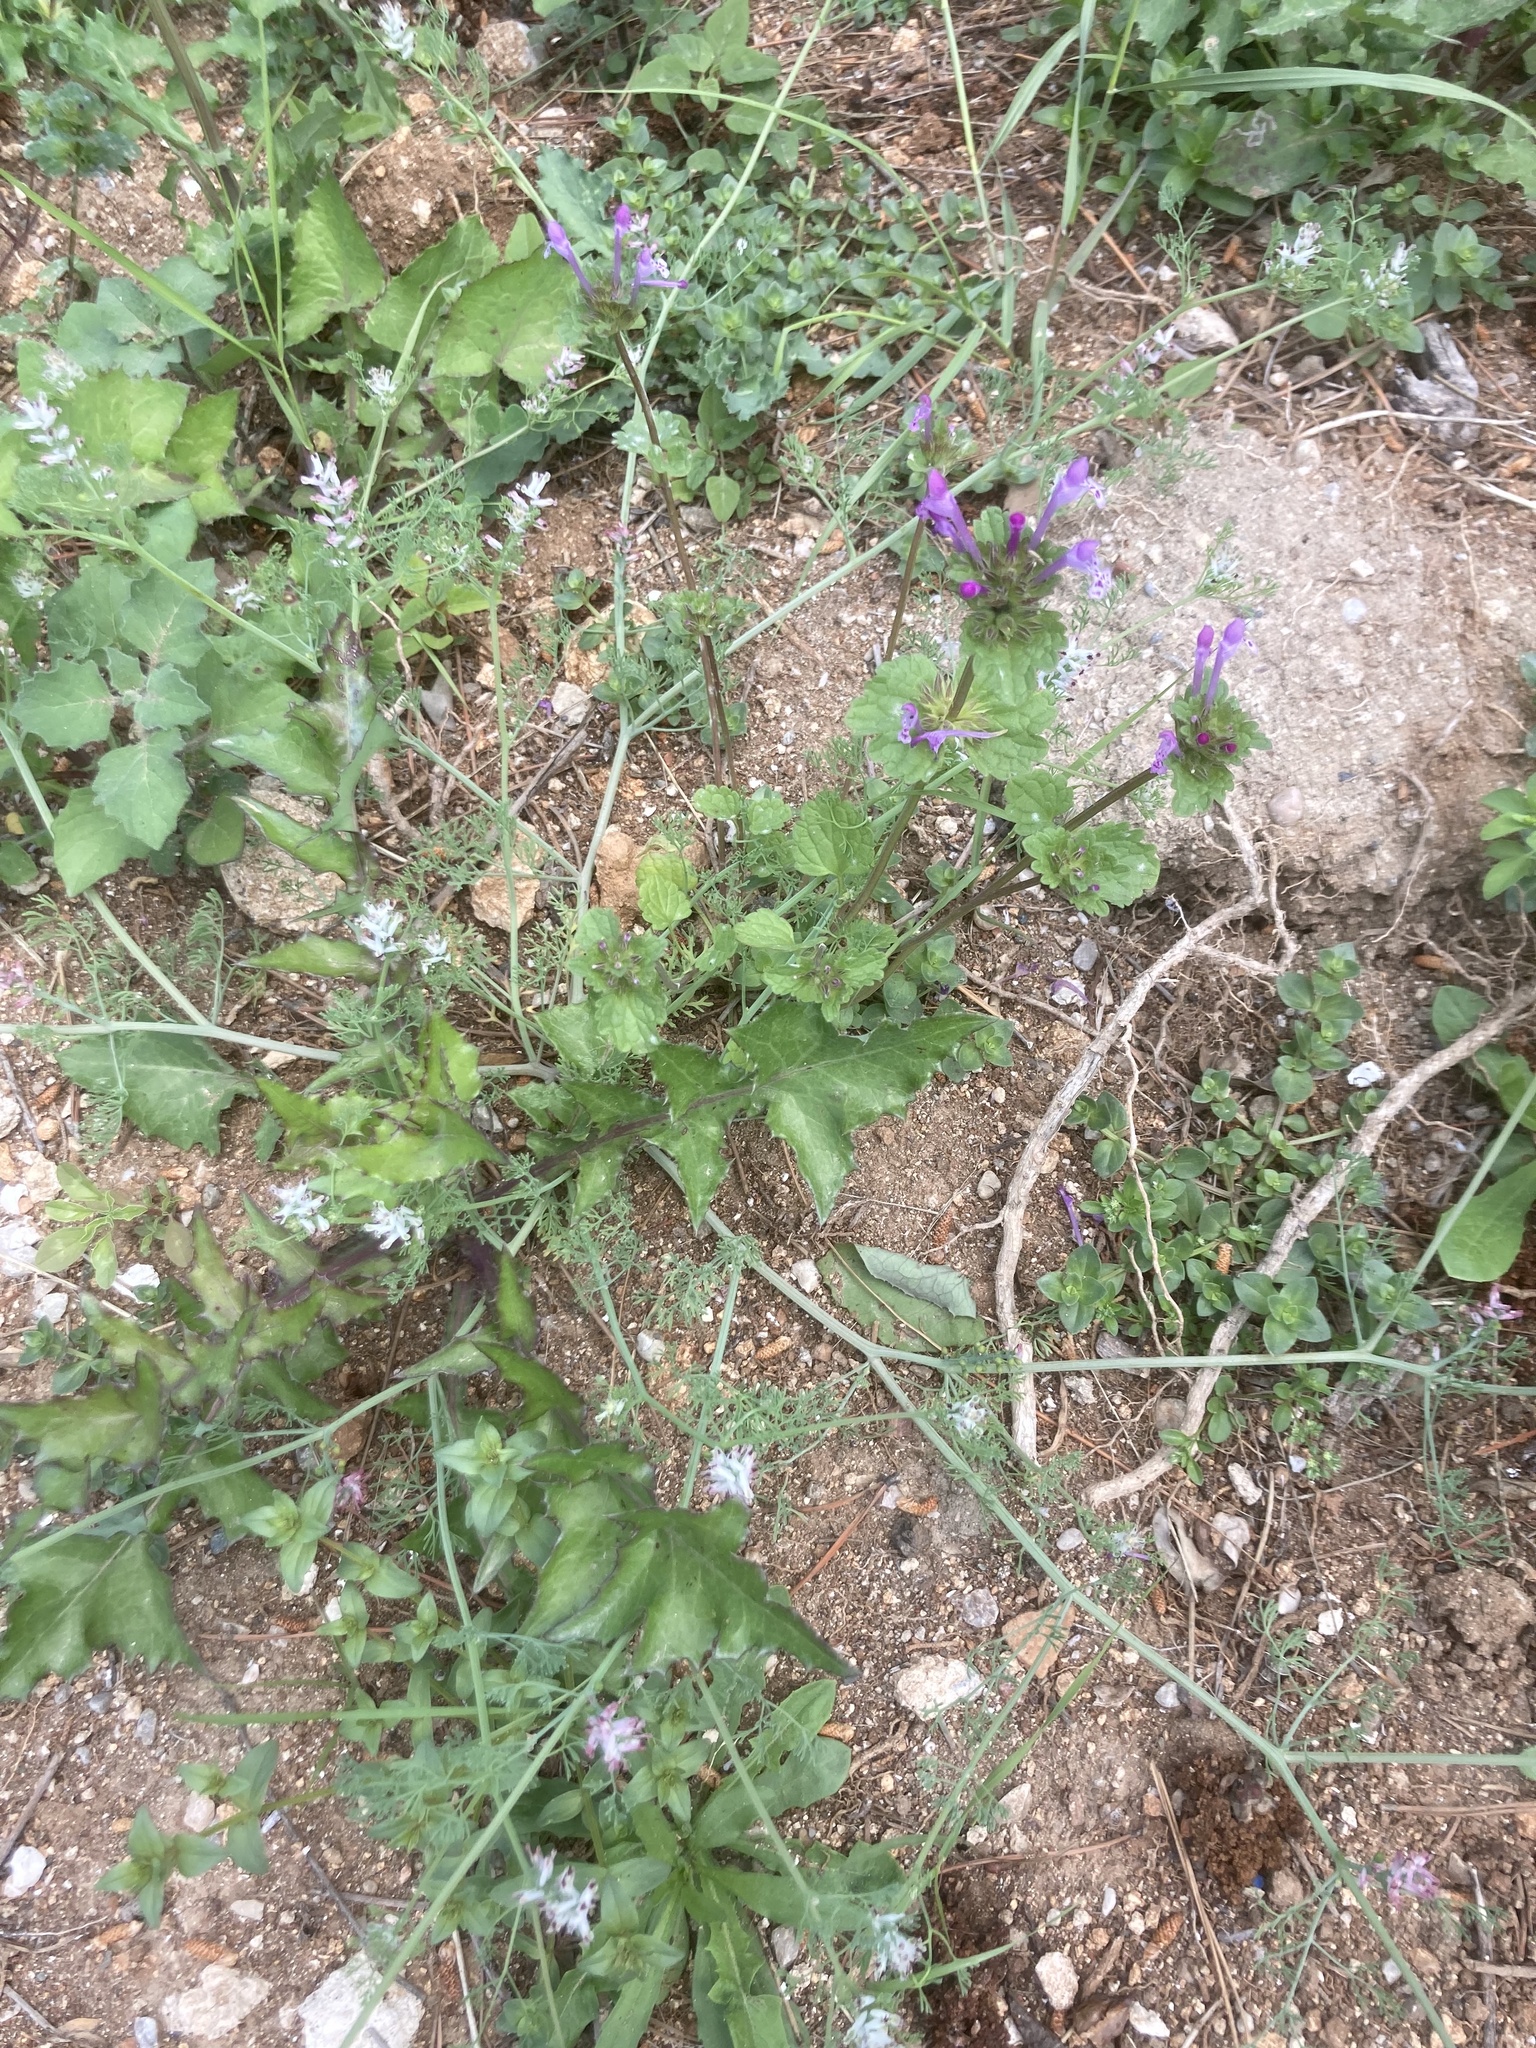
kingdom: Plantae
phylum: Tracheophyta
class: Magnoliopsida
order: Lamiales
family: Lamiaceae
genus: Lamium
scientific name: Lamium amplexicaule
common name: Henbit dead-nettle
